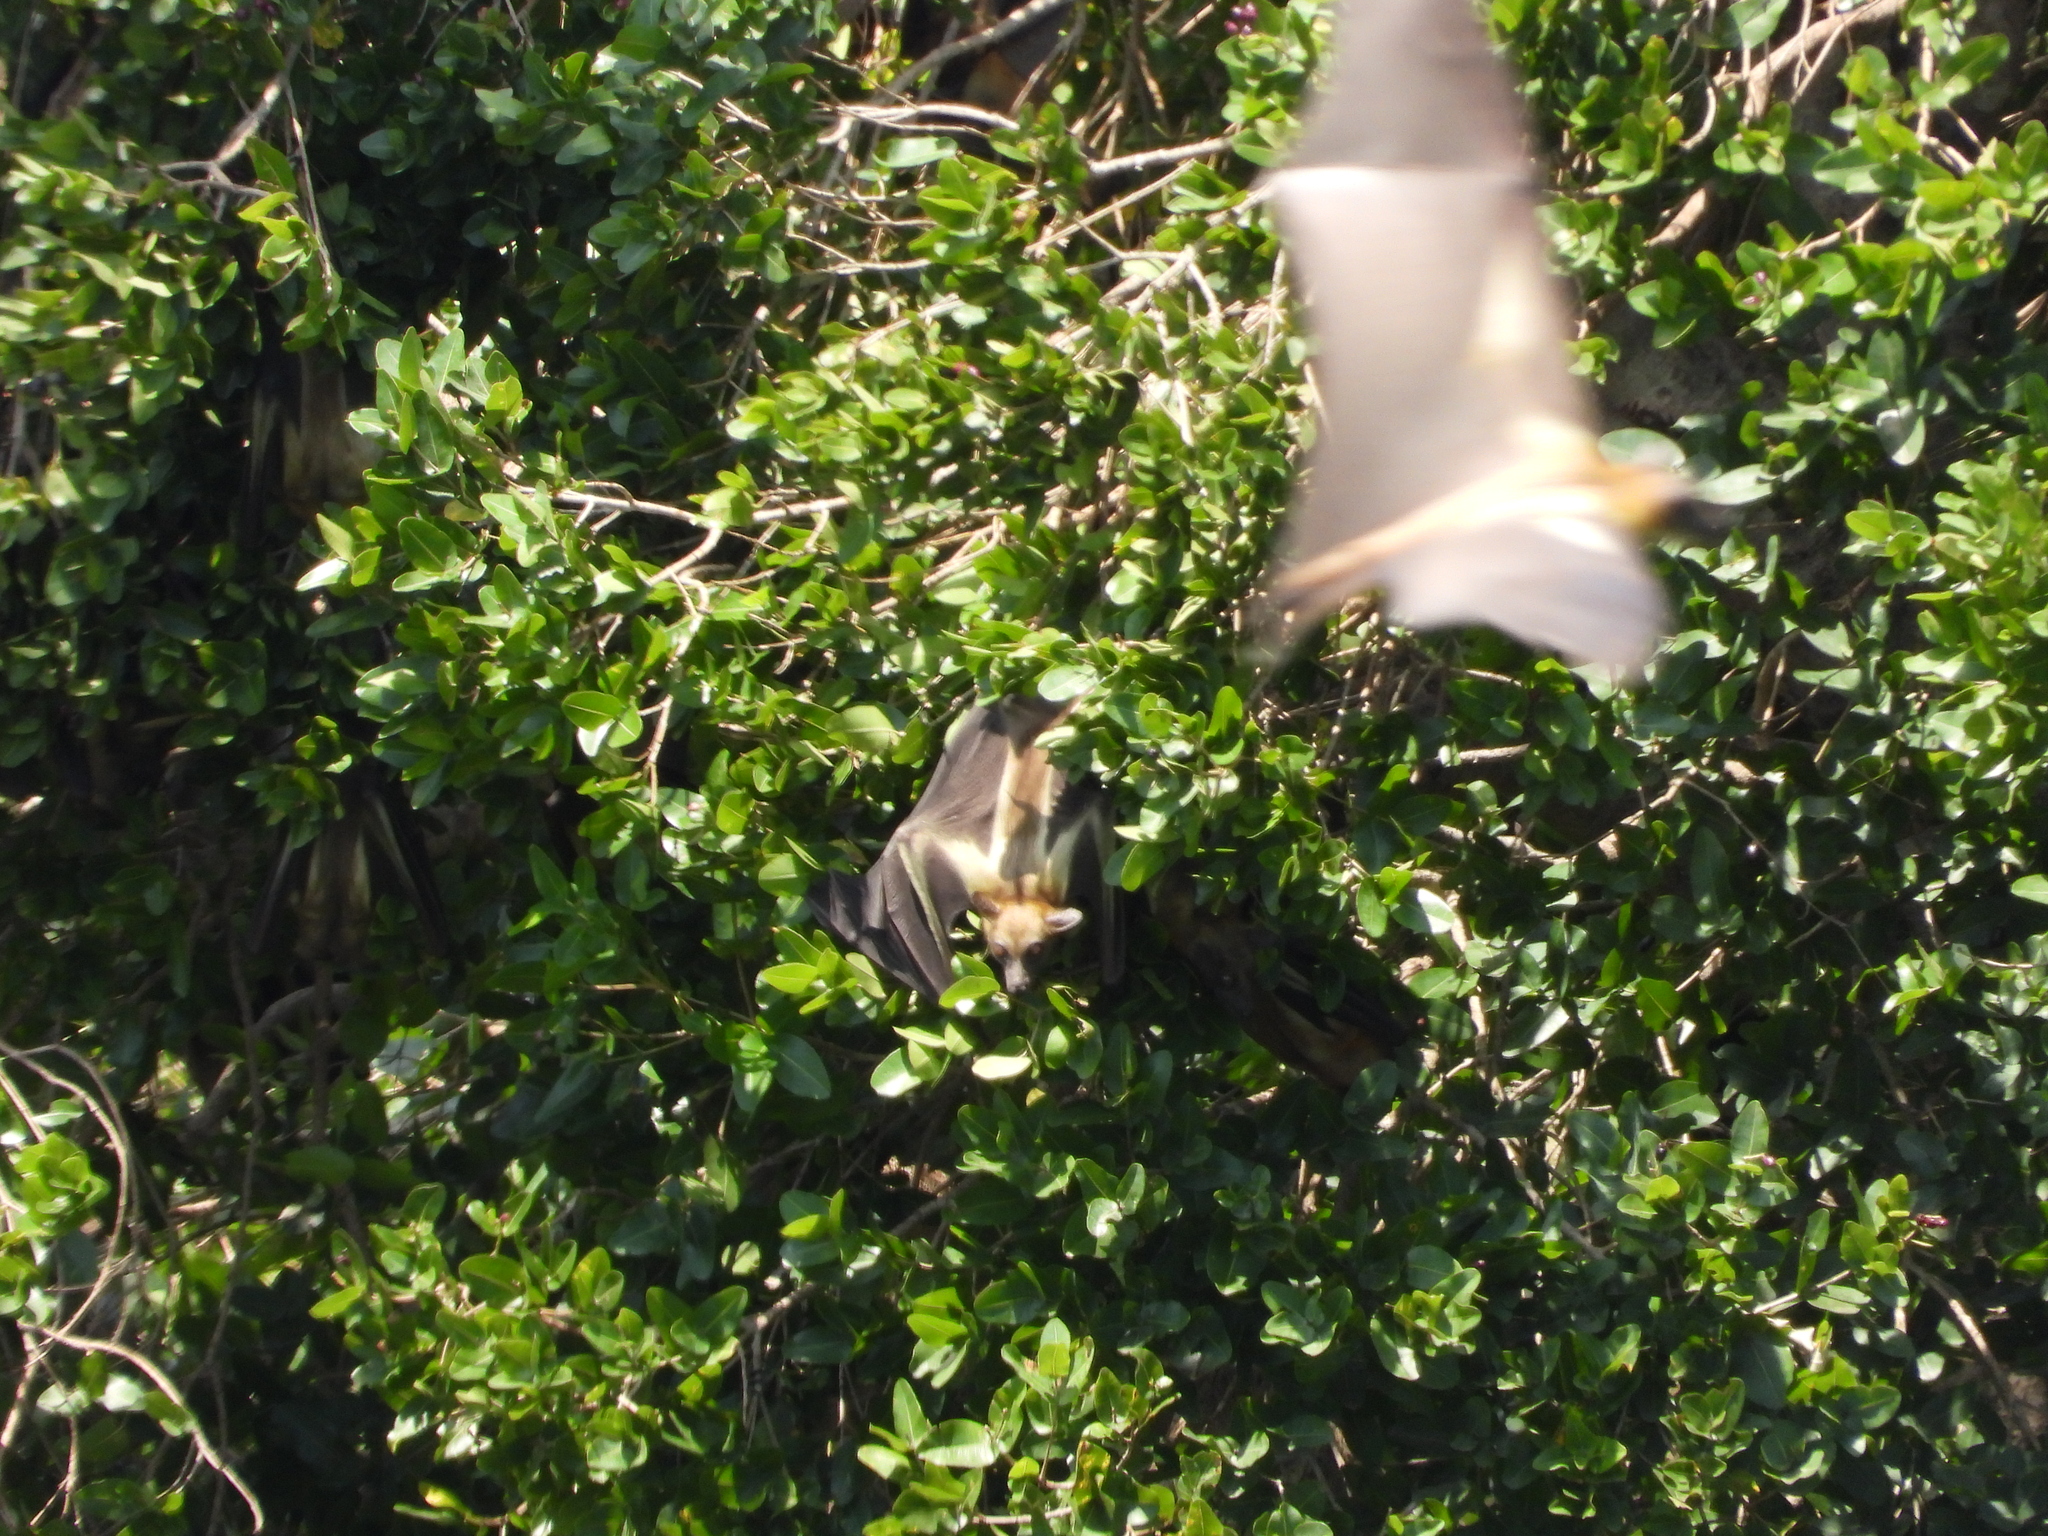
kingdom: Animalia
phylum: Chordata
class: Mammalia
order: Chiroptera
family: Pteropodidae
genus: Eidolon
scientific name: Eidolon helvum
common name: Straw-colored fruit bat
